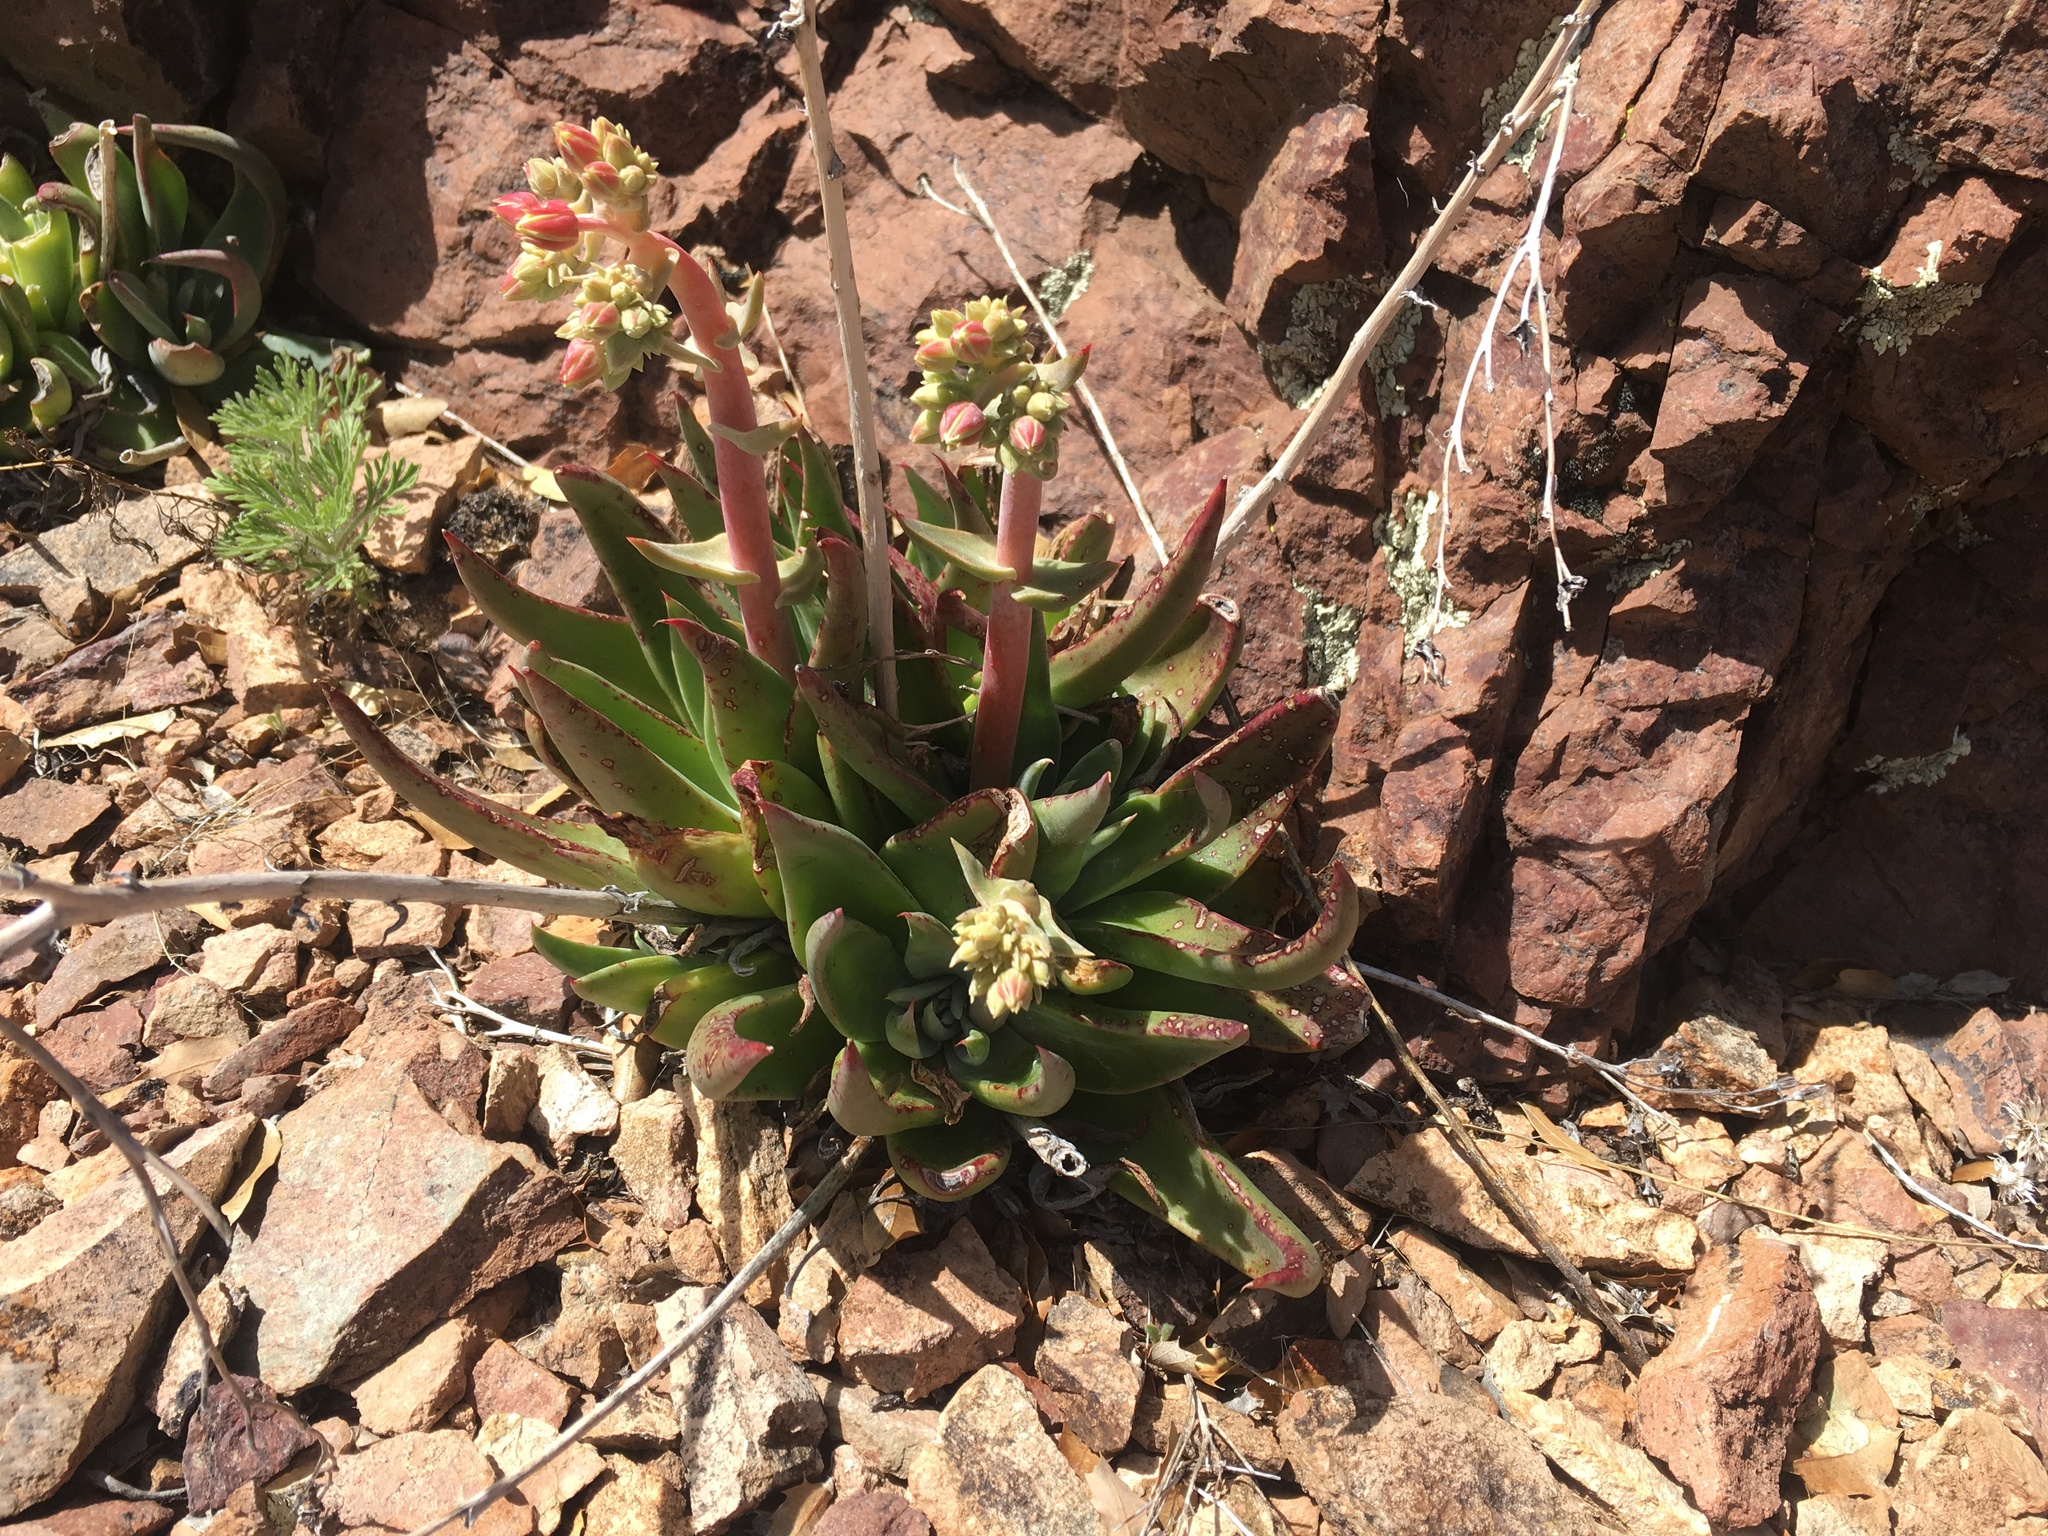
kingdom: Plantae
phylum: Tracheophyta
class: Magnoliopsida
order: Saxifragales
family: Crassulaceae
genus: Dudleya
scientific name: Dudleya collomiae
